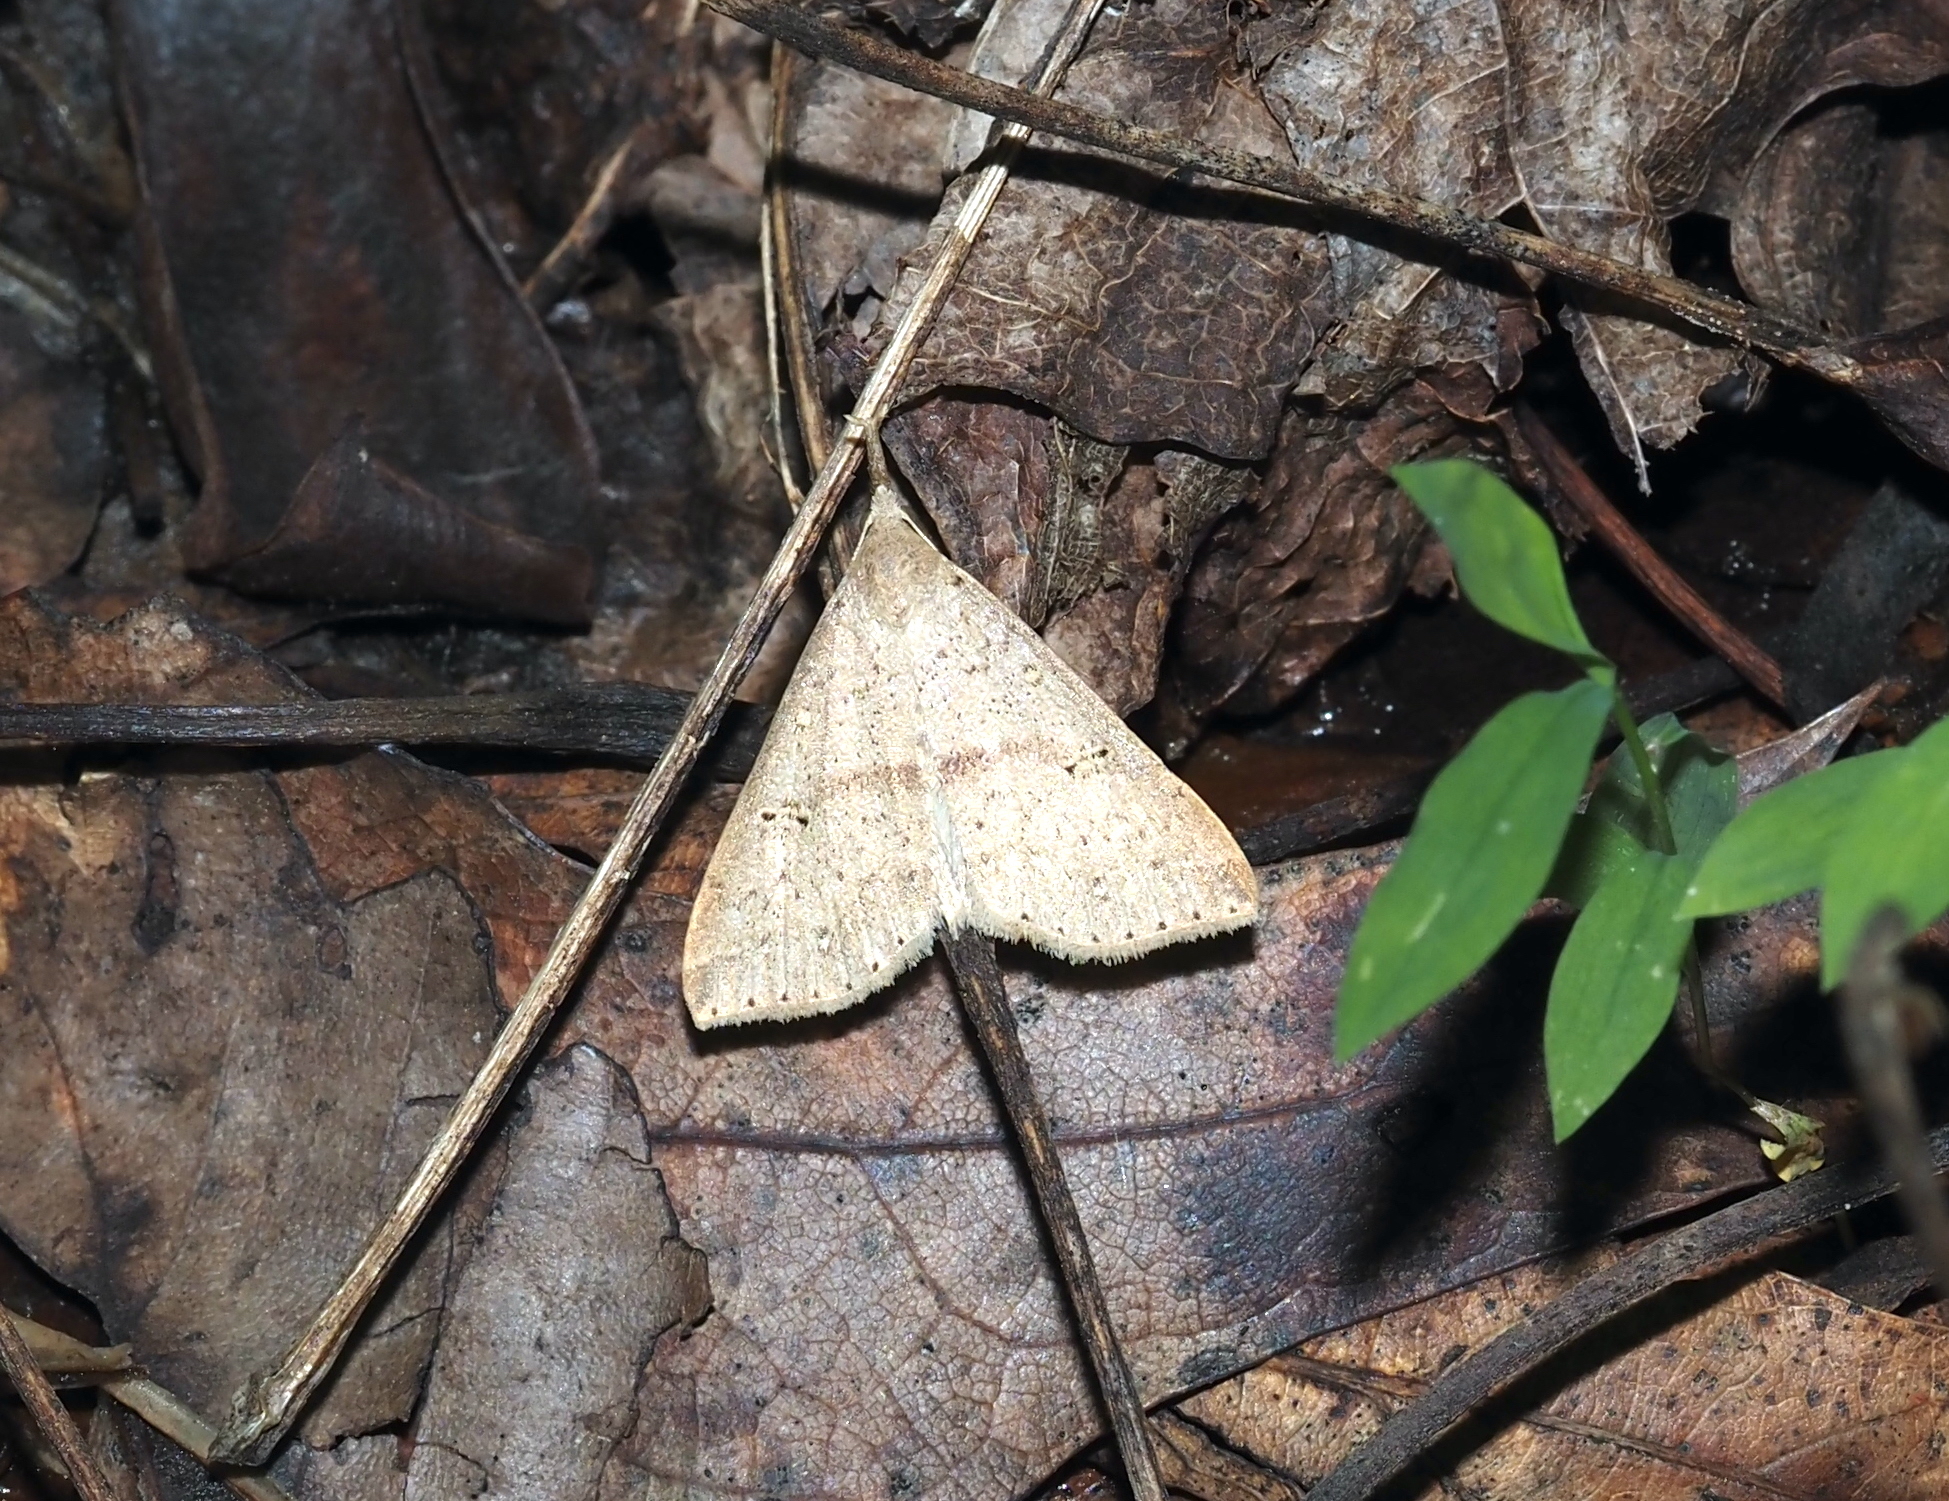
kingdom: Animalia
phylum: Arthropoda
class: Insecta
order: Lepidoptera
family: Erebidae
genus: Renia
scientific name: Renia salusalis
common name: Dotted renia moth
